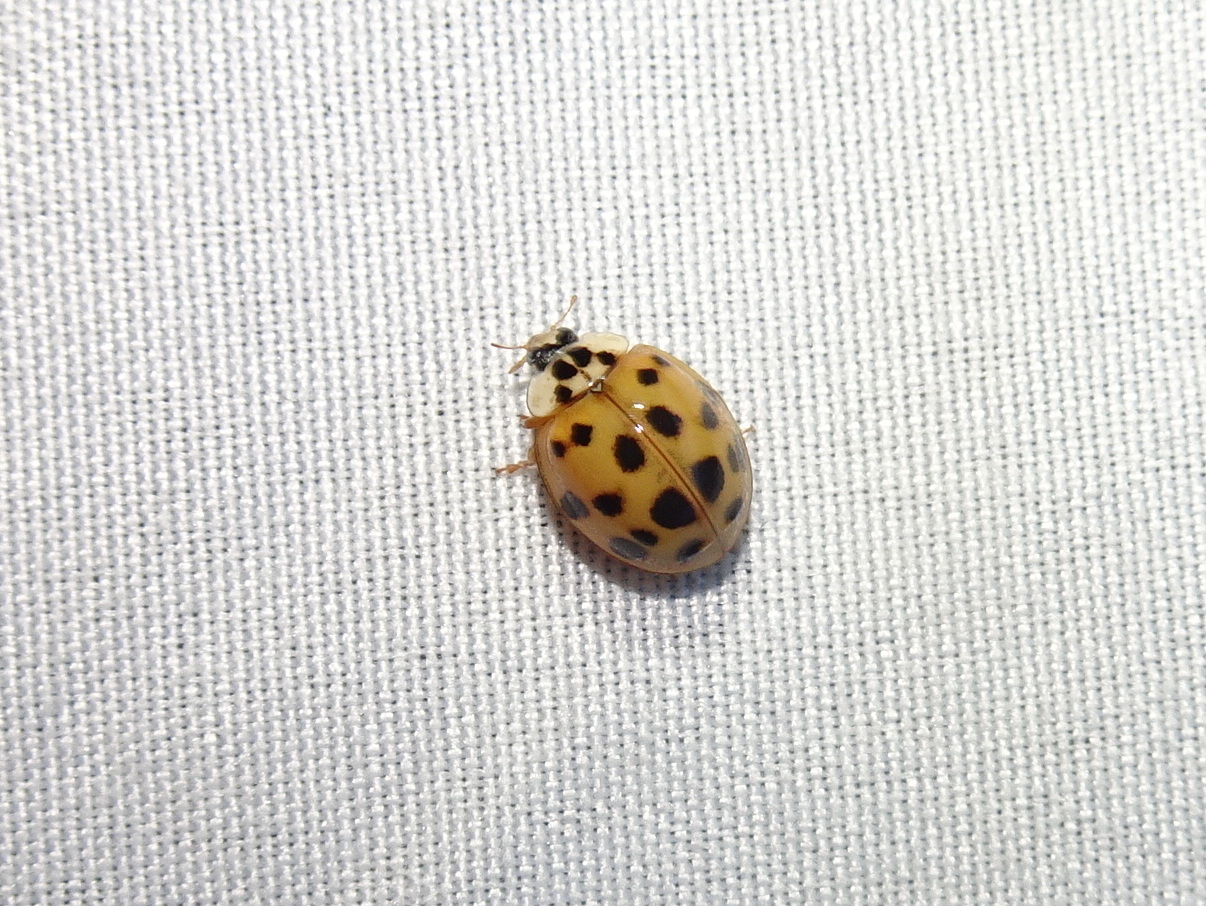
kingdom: Animalia
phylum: Arthropoda
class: Insecta
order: Coleoptera
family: Coccinellidae
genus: Harmonia
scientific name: Harmonia axyridis
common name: Harlequin ladybird
